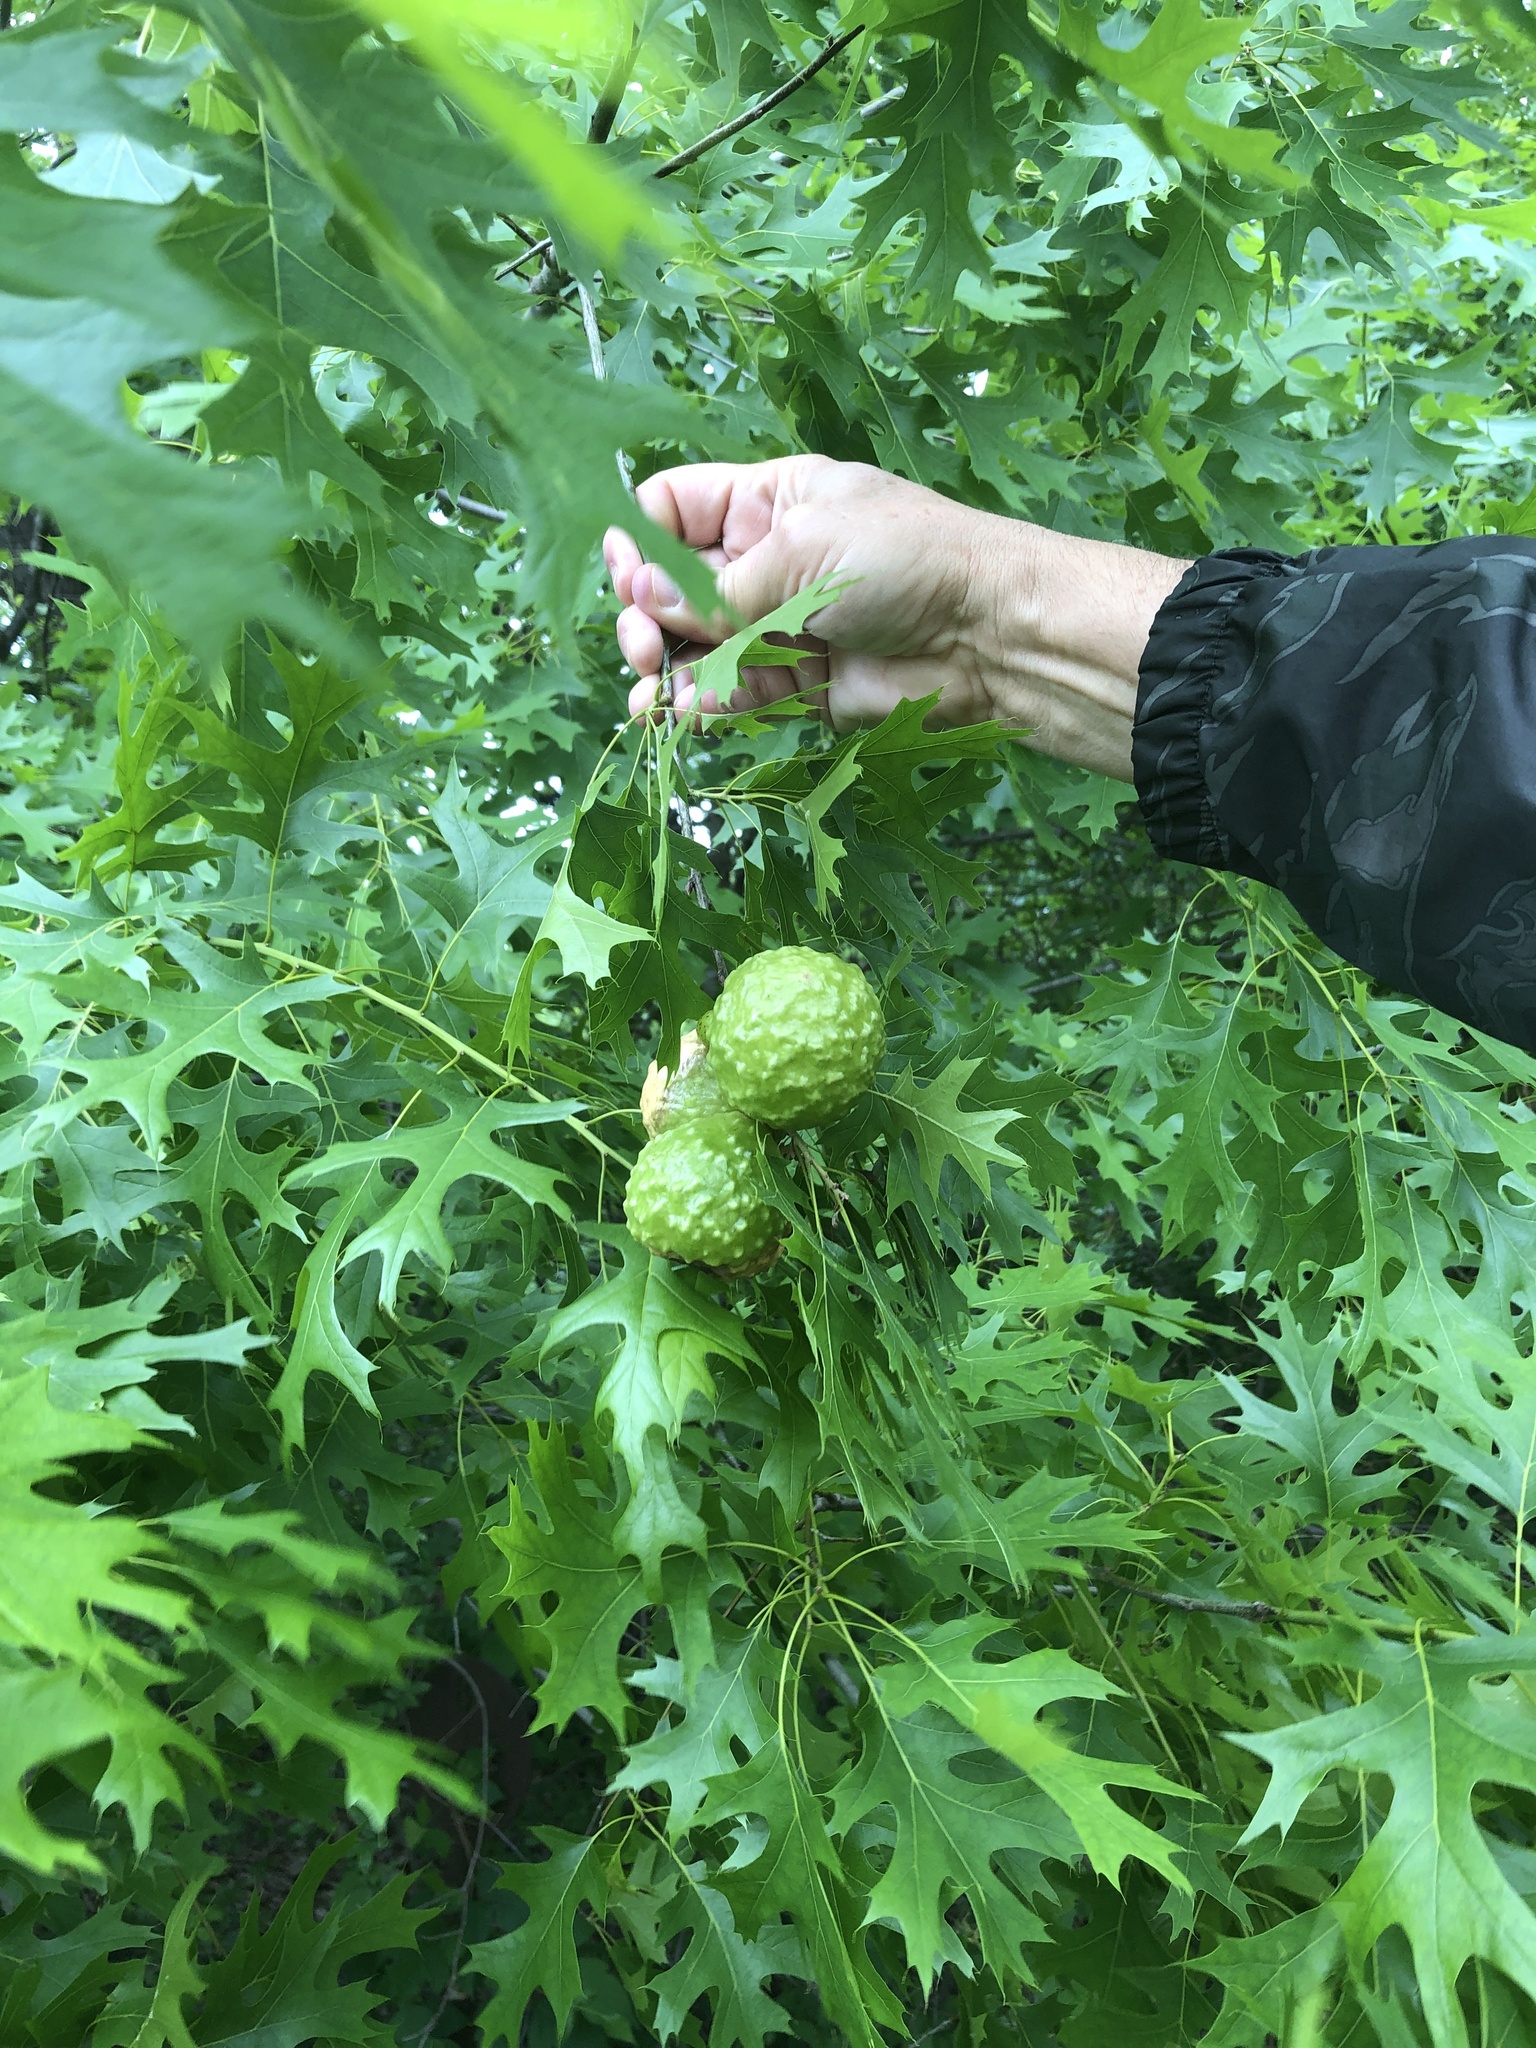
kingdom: Animalia
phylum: Arthropoda
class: Insecta
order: Hymenoptera
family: Cynipidae
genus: Amphibolips
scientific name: Amphibolips
